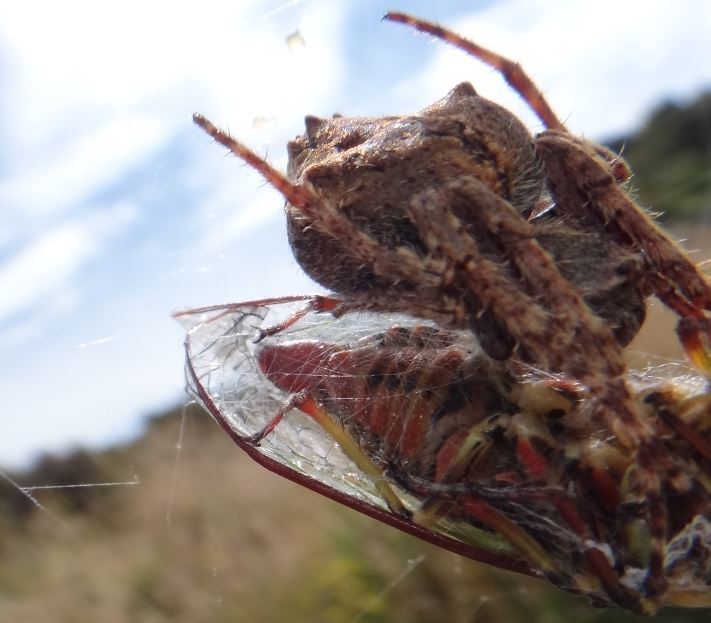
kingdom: Animalia
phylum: Arthropoda
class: Arachnida
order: Araneae
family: Araneidae
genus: Eriophora
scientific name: Eriophora pustulosa
